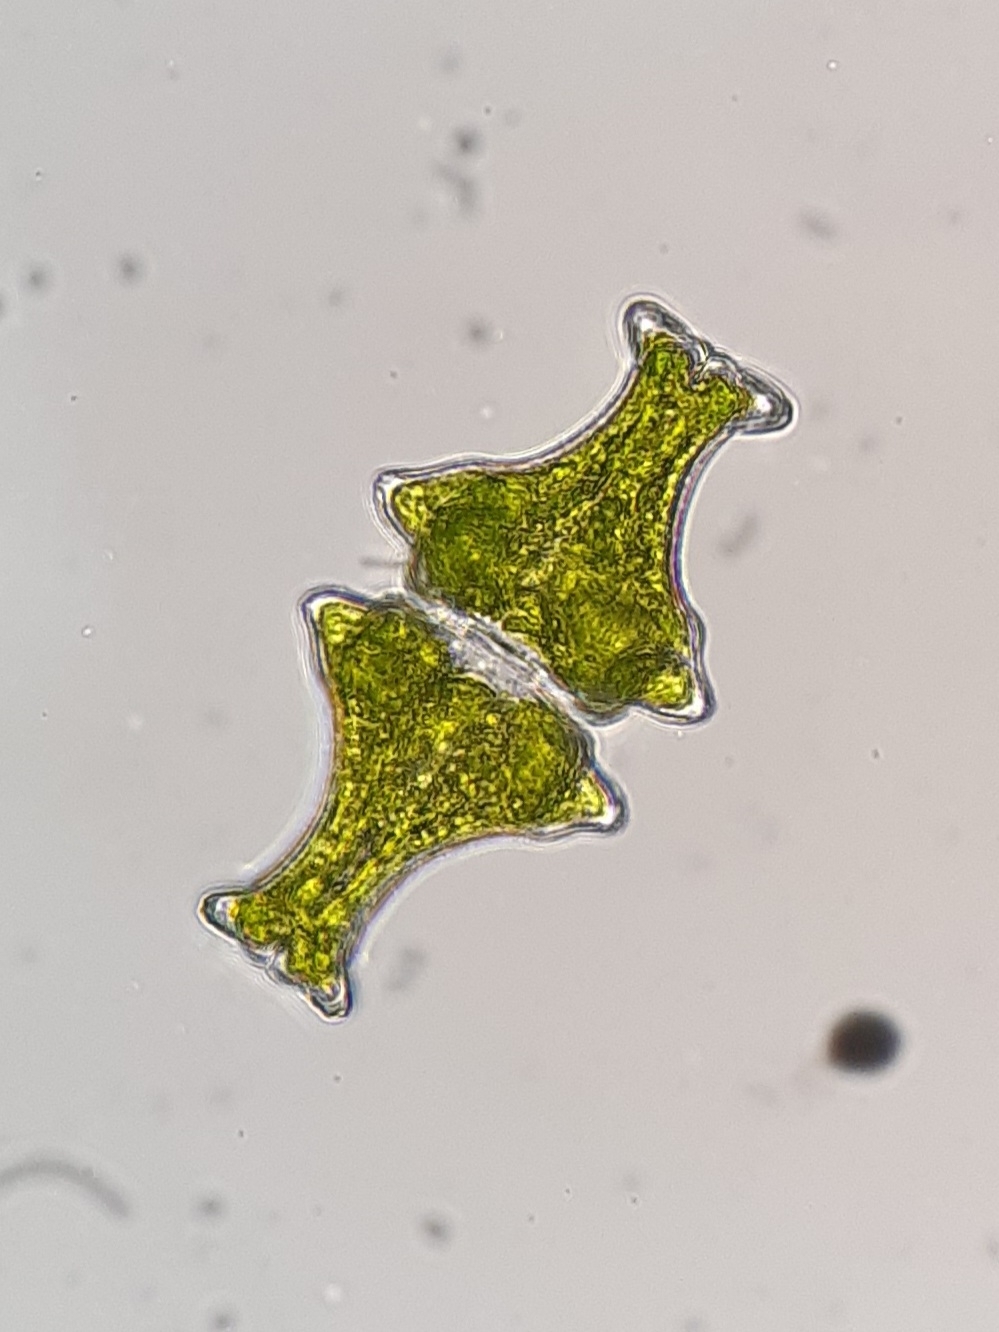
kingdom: Plantae
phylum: Charophyta
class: Conjugatophyceae
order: Desmidiales
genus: Euastrum
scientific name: Euastrum insigne
